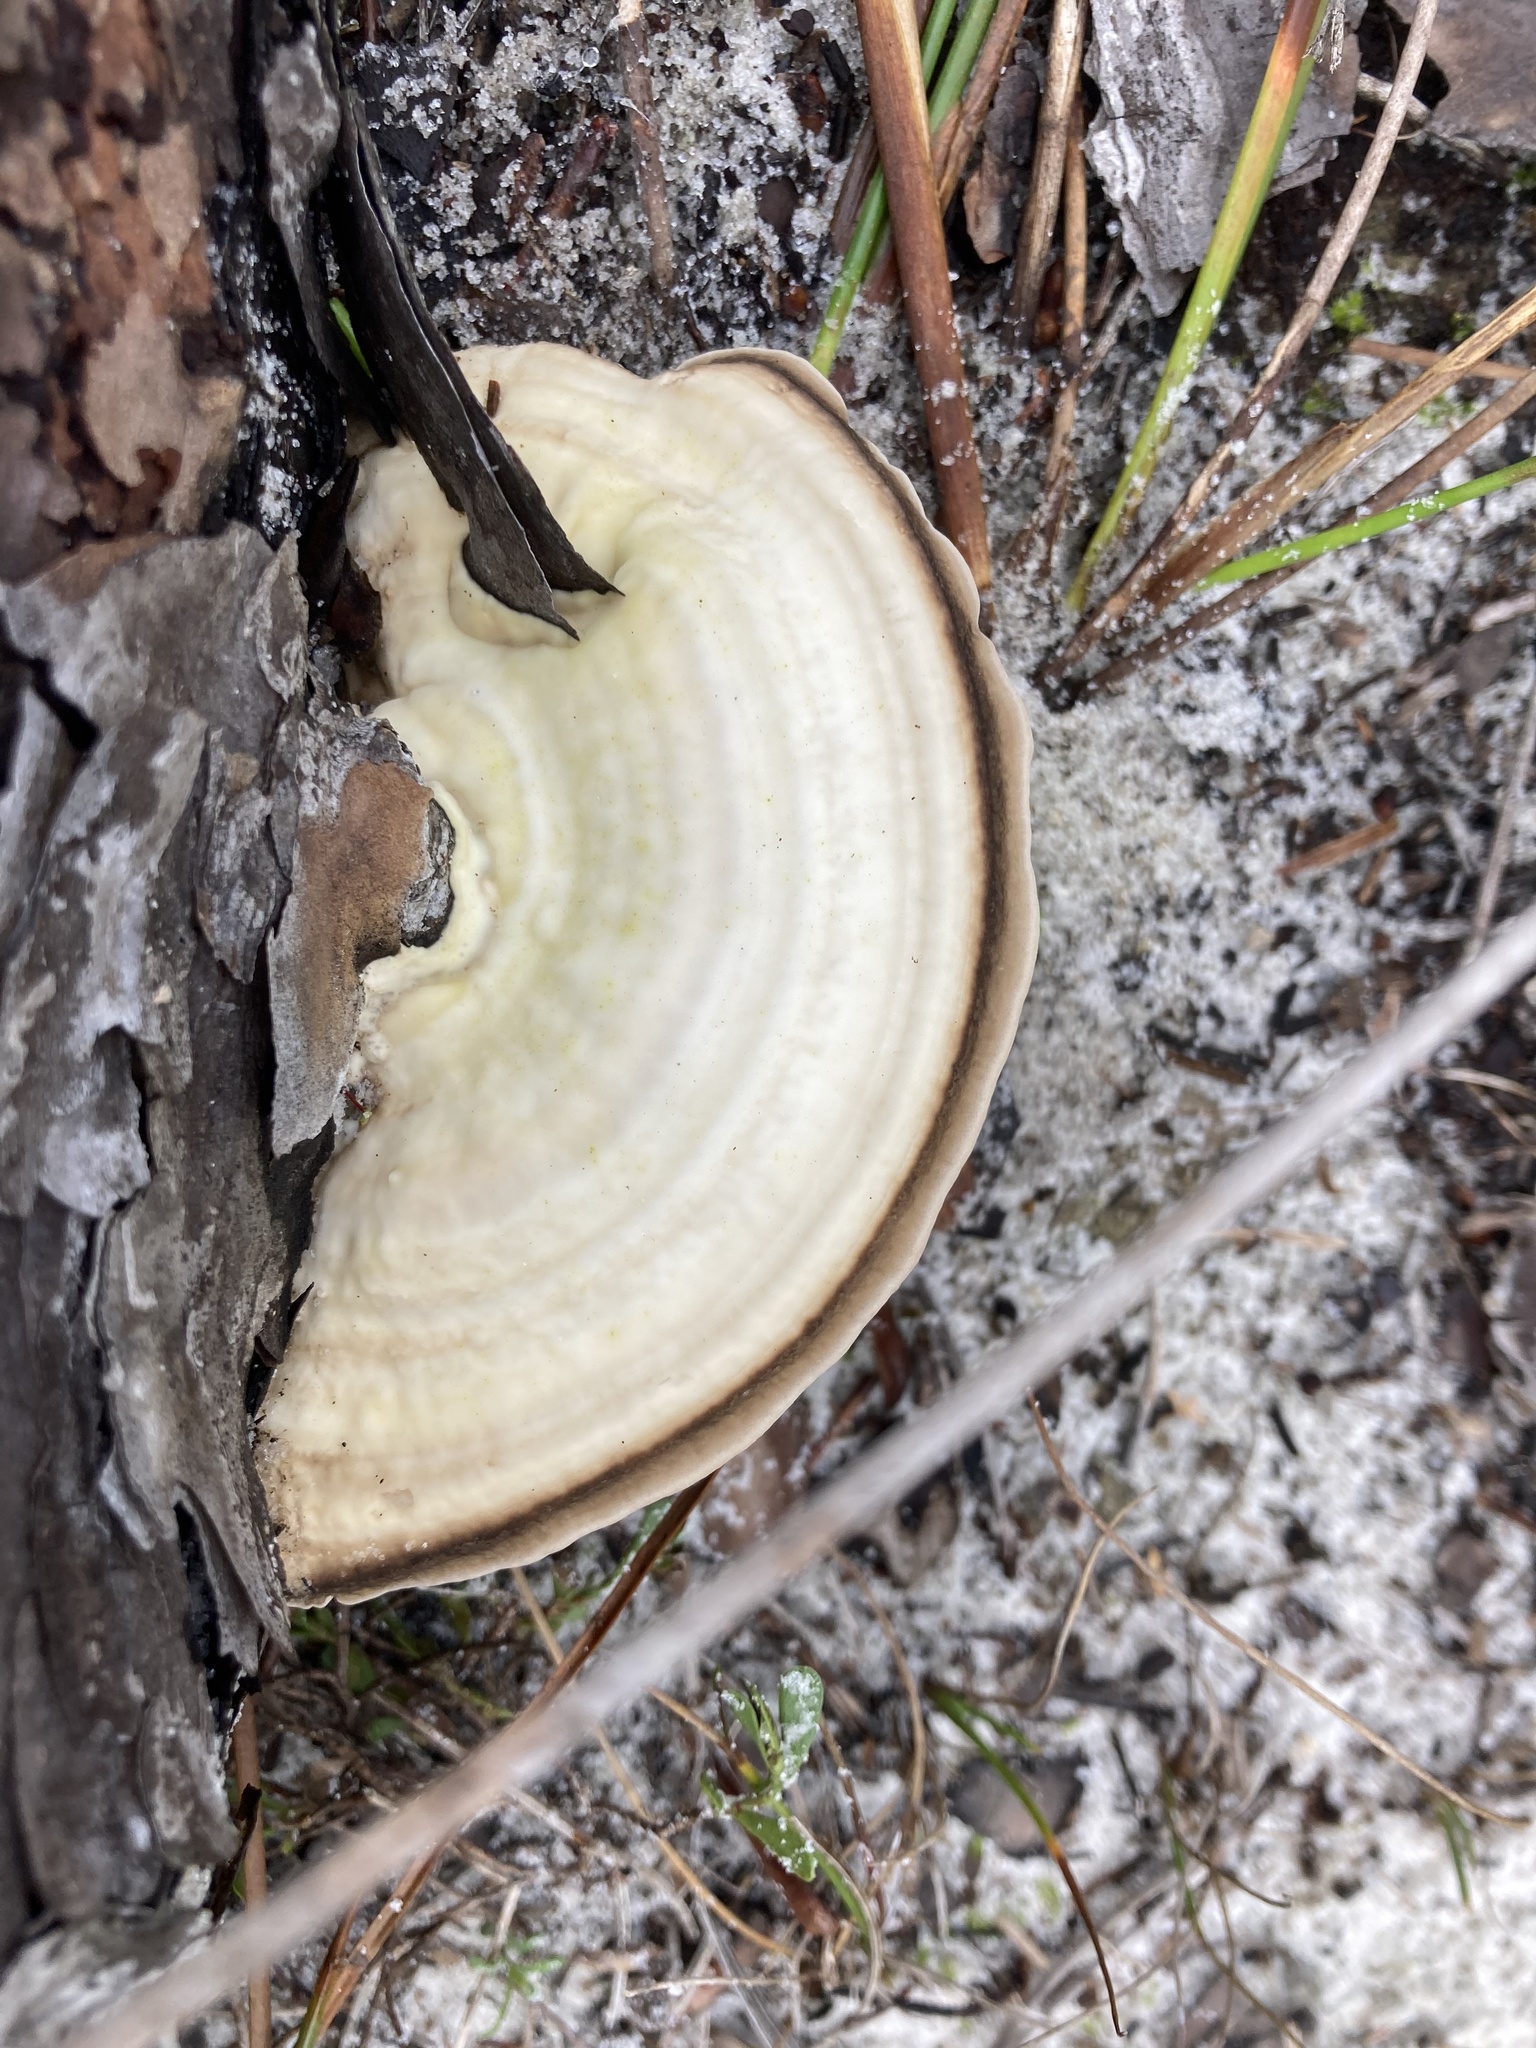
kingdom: Fungi
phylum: Basidiomycota
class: Agaricomycetes
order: Polyporales
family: Polyporaceae
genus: Trametes
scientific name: Trametes lactinea
